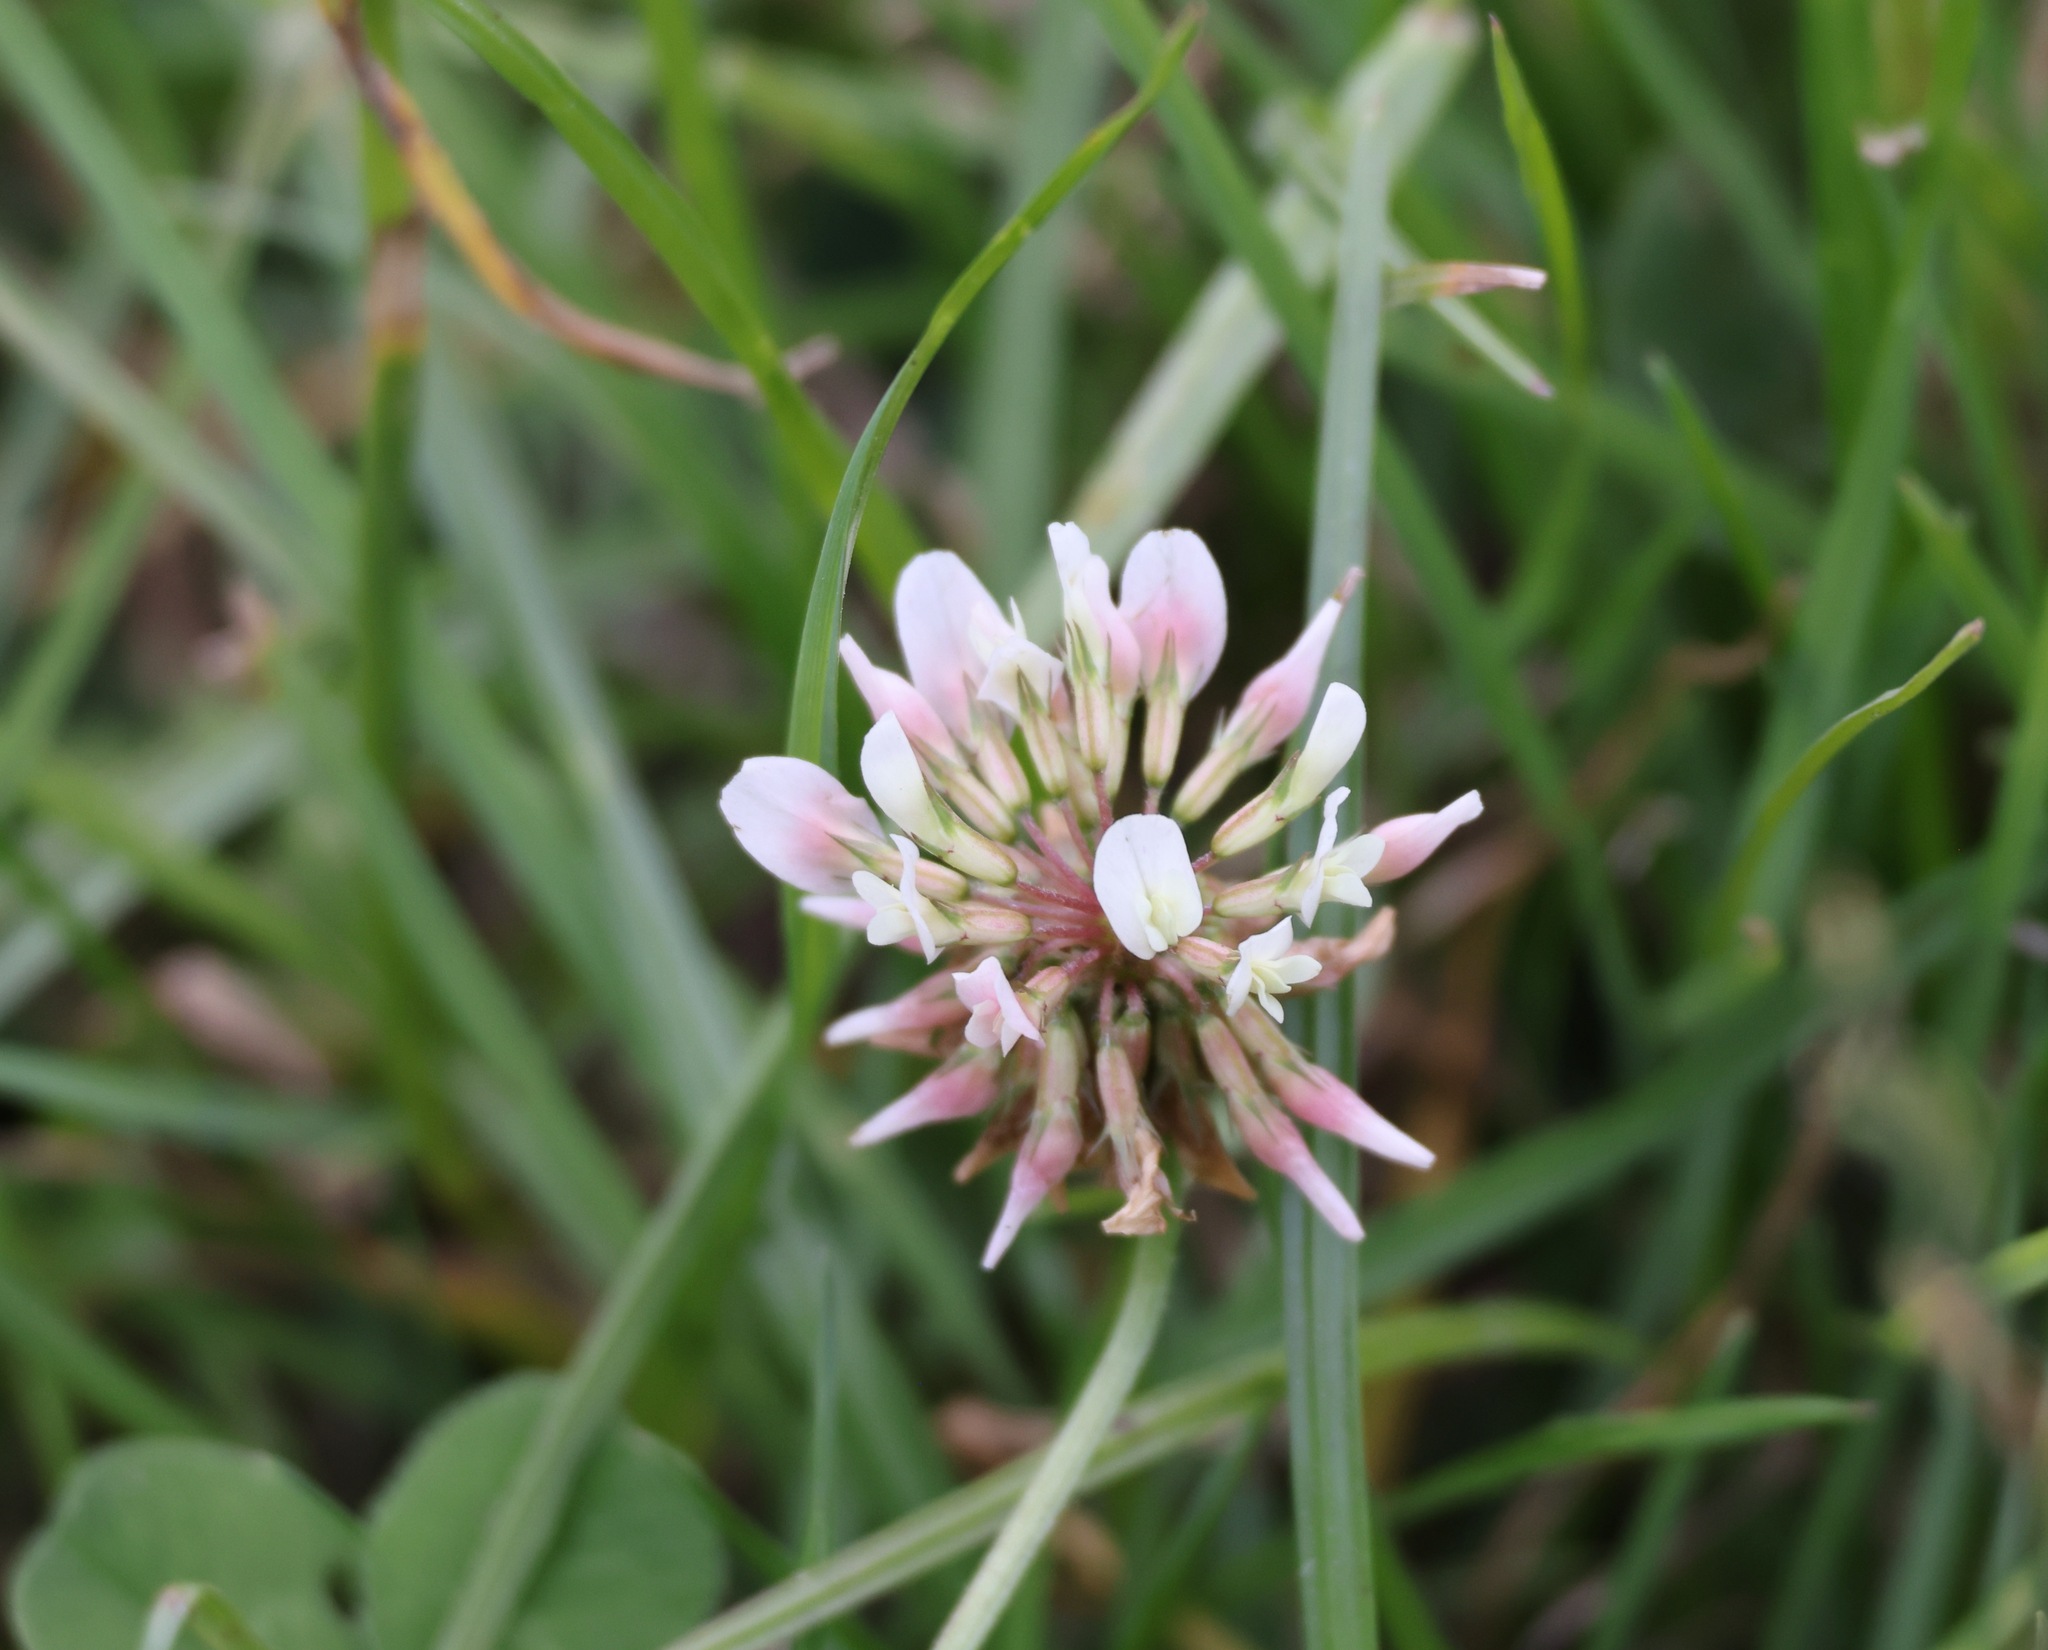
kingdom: Plantae
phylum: Tracheophyta
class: Magnoliopsida
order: Fabales
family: Fabaceae
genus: Trifolium
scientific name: Trifolium repens
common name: White clover
